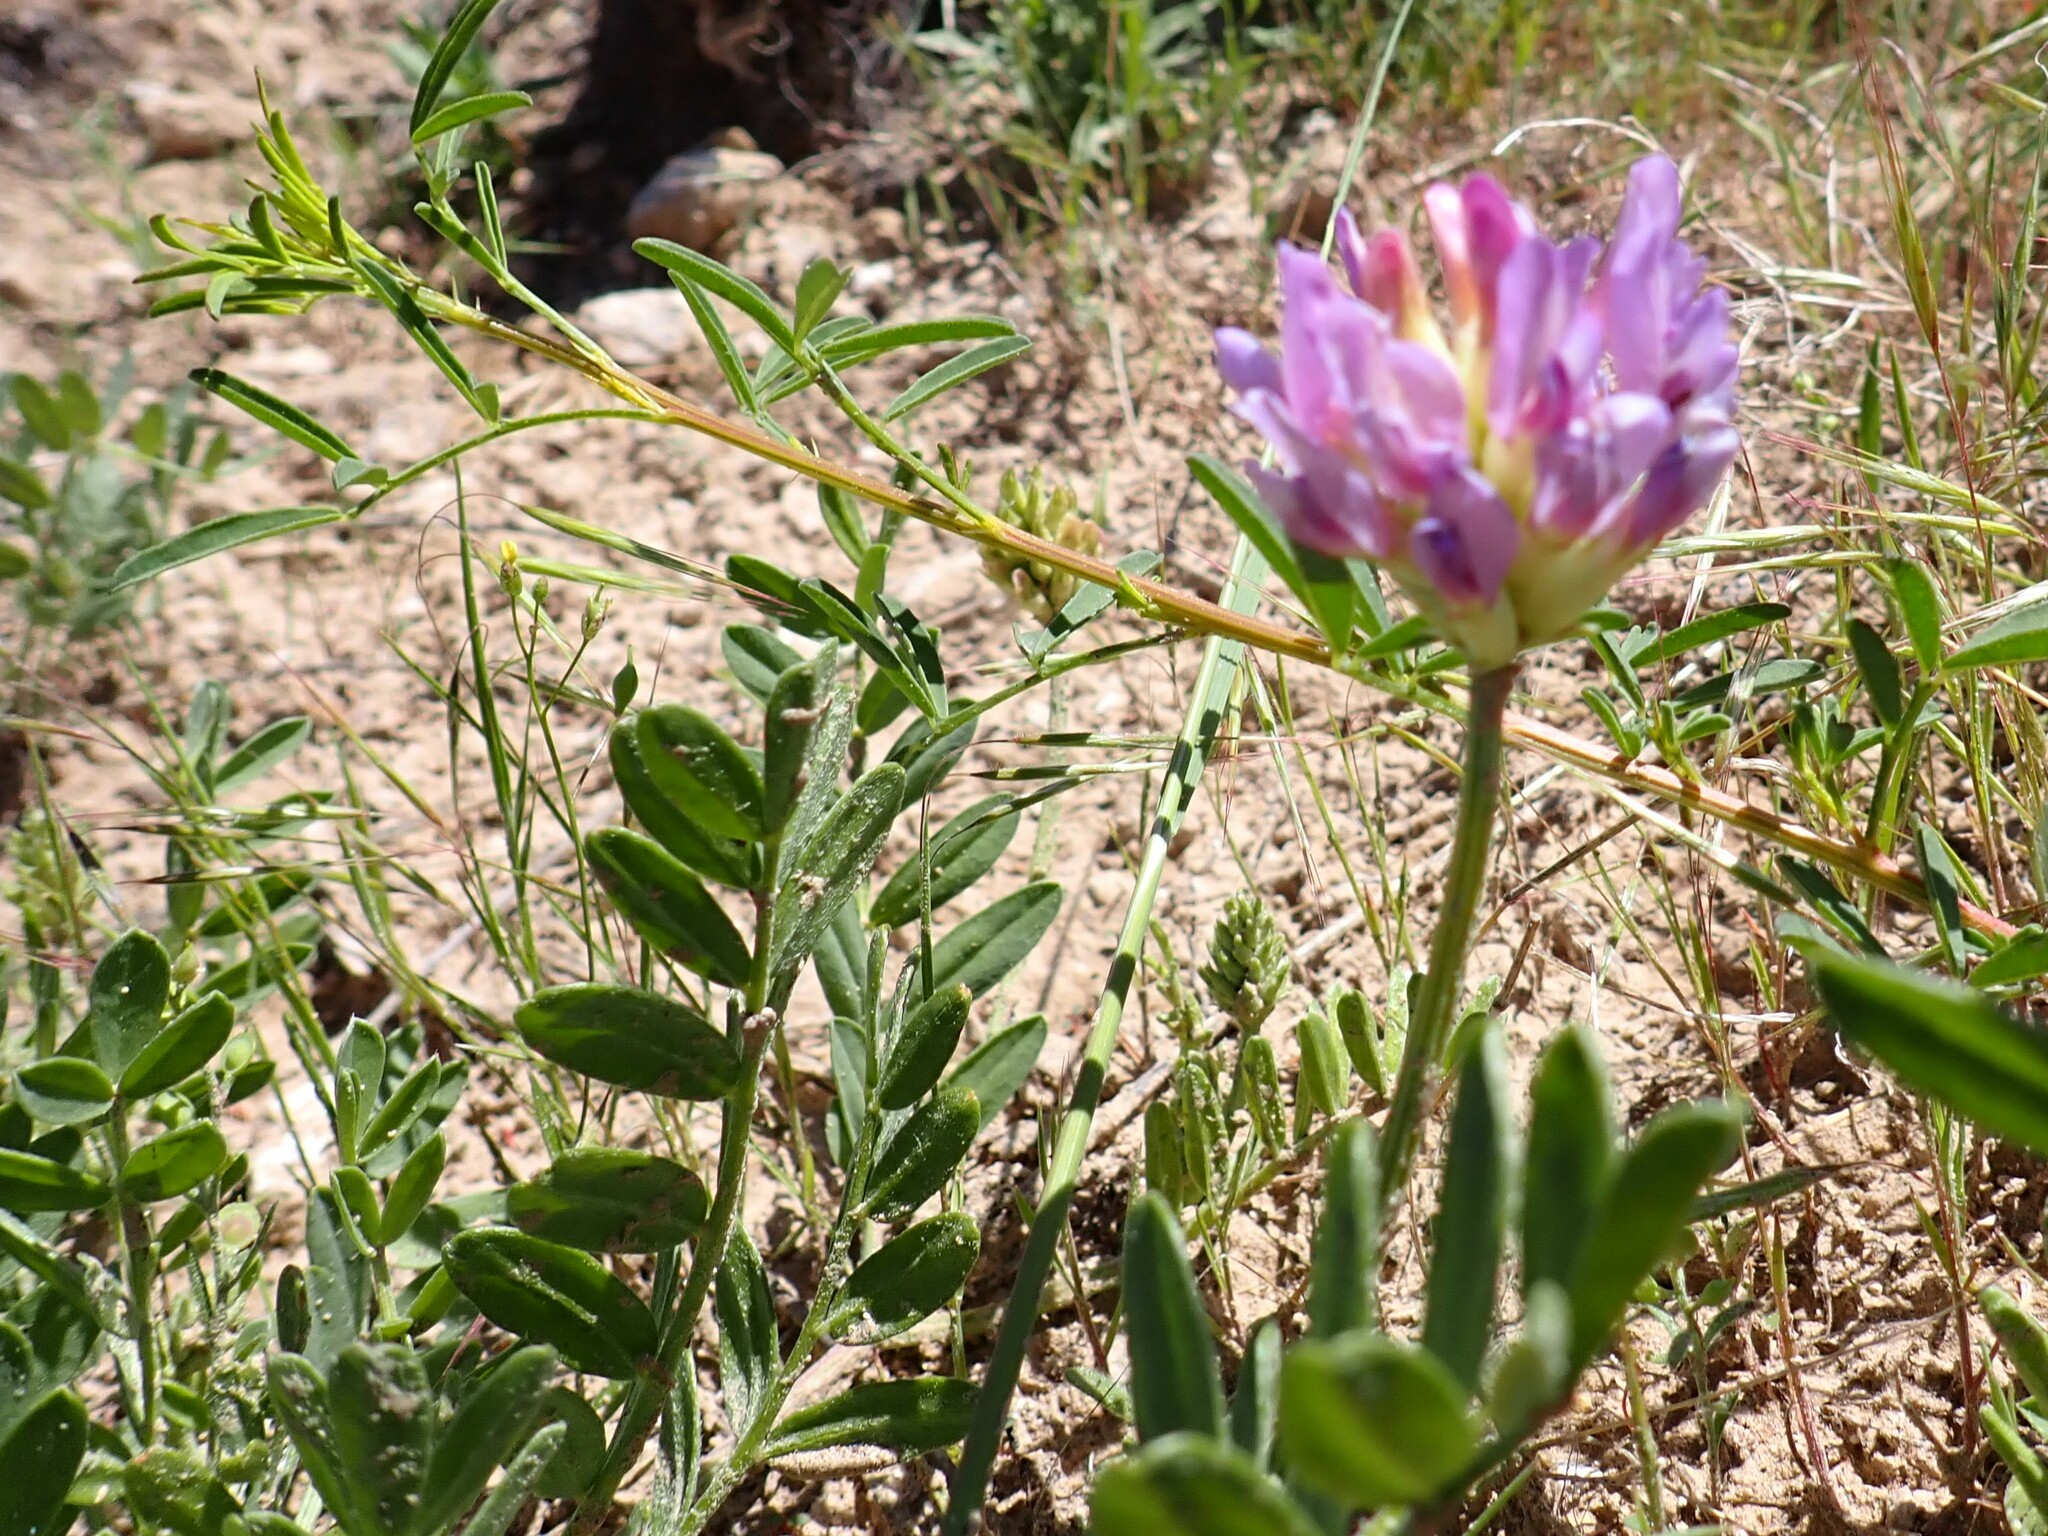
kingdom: Plantae
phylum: Tracheophyta
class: Magnoliopsida
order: Fabales
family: Fabaceae
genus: Astragalus
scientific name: Astragalus laxmannii
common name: Laxmann's milk-vetch
